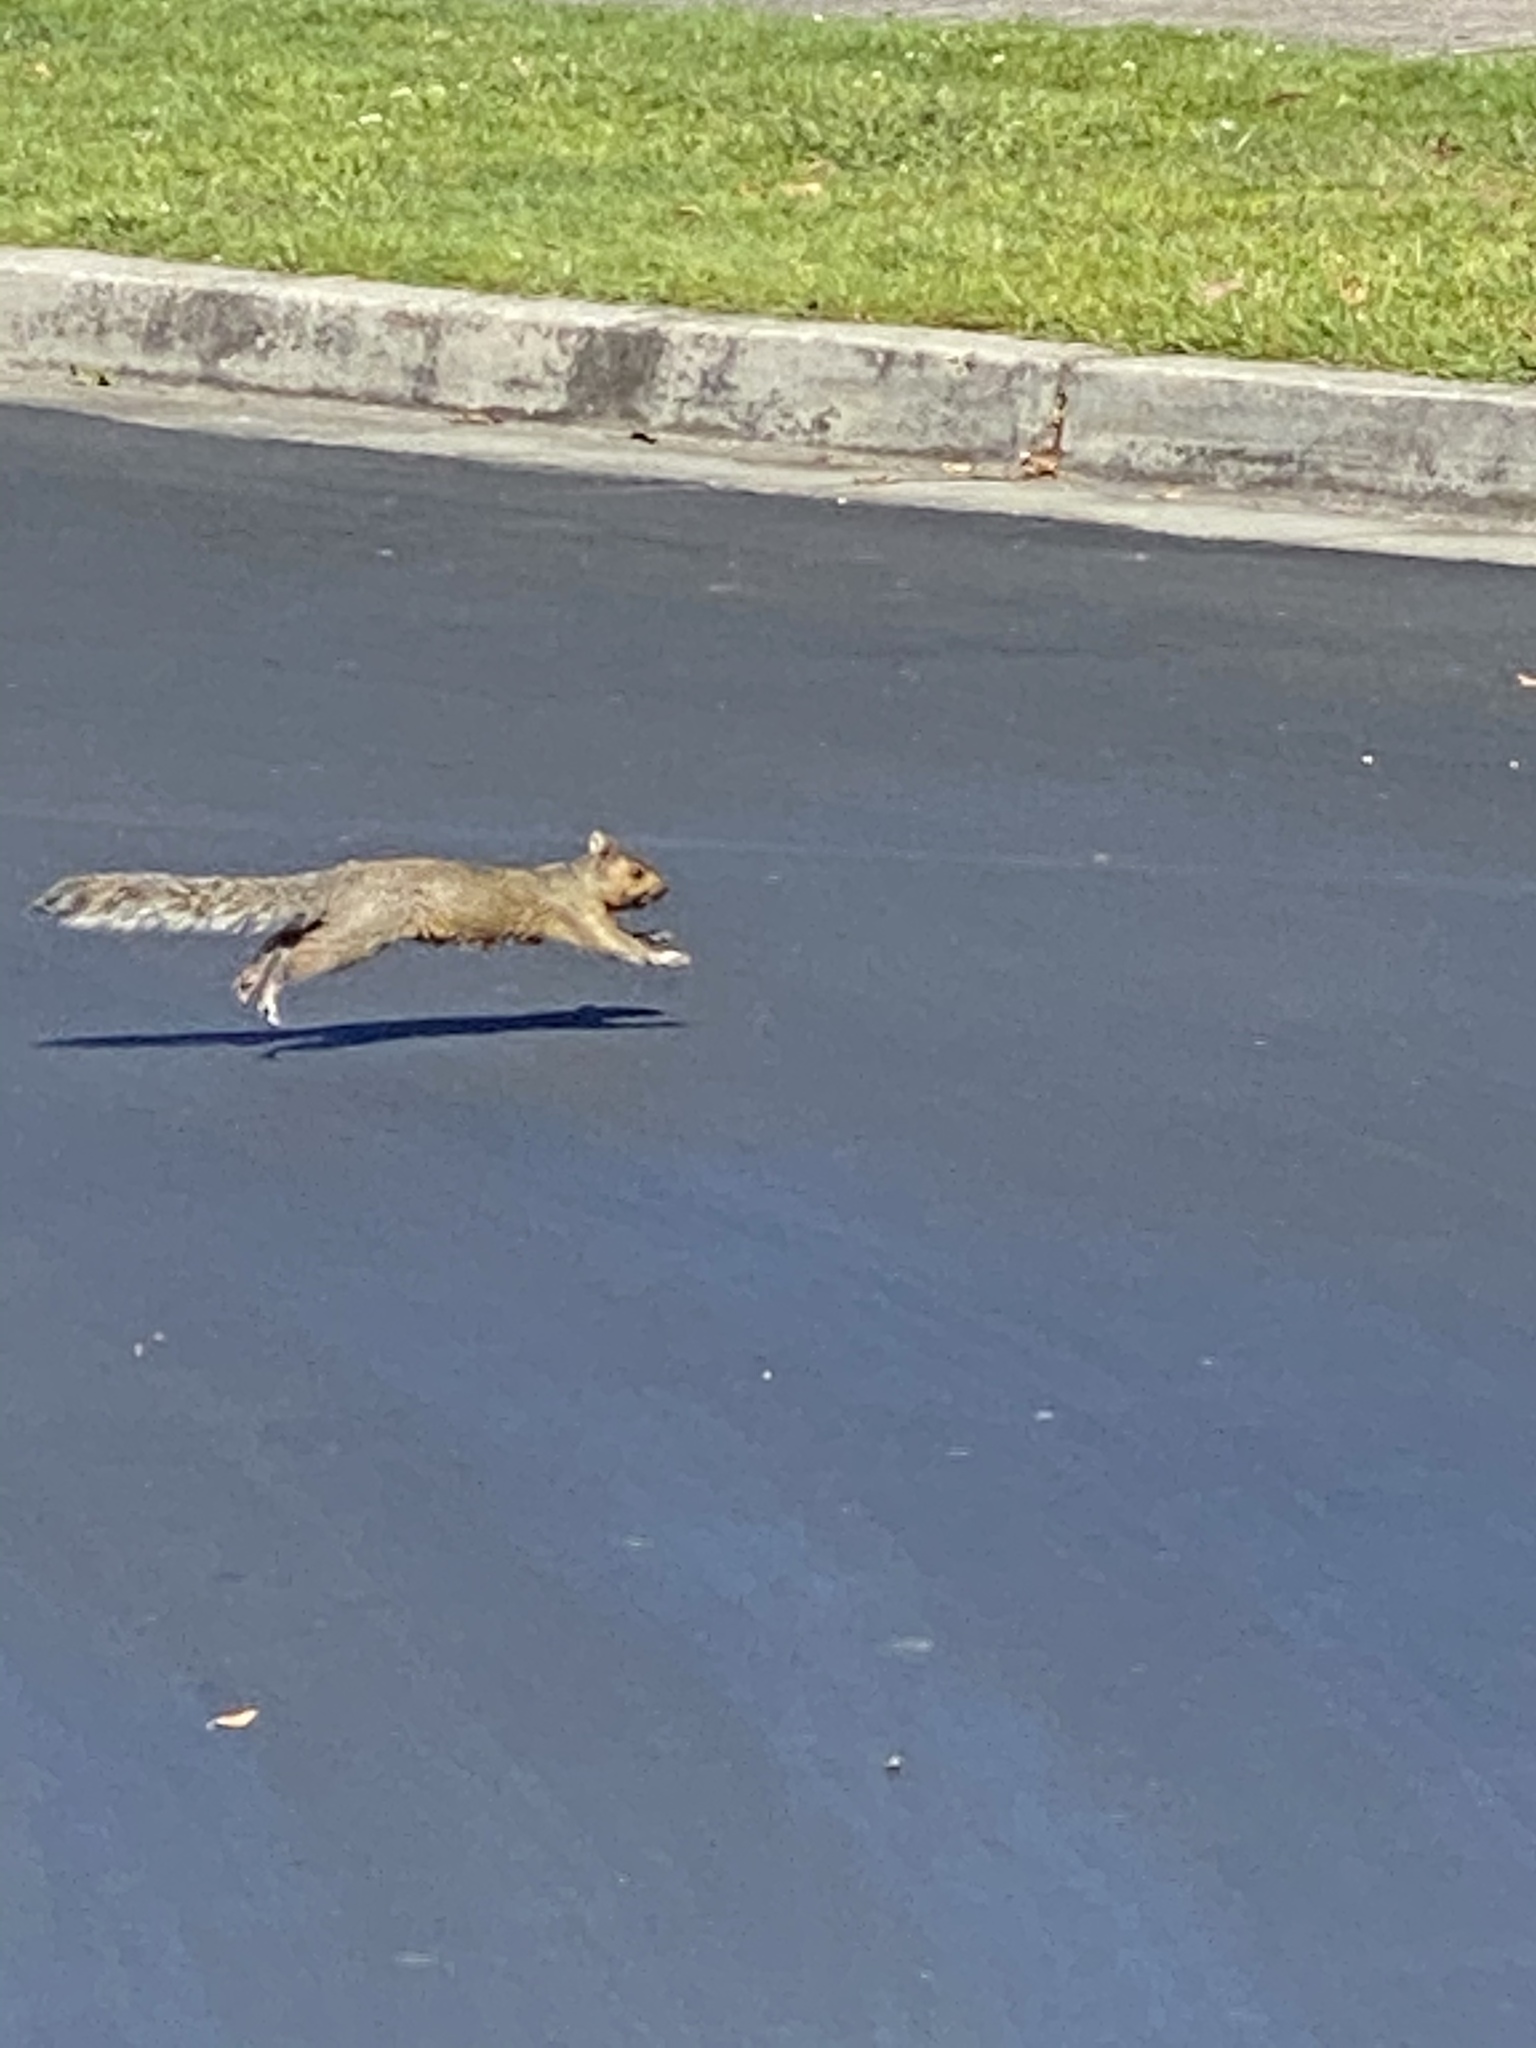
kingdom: Animalia
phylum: Chordata
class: Mammalia
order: Rodentia
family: Sciuridae
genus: Sciurus
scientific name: Sciurus carolinensis
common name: Eastern gray squirrel
